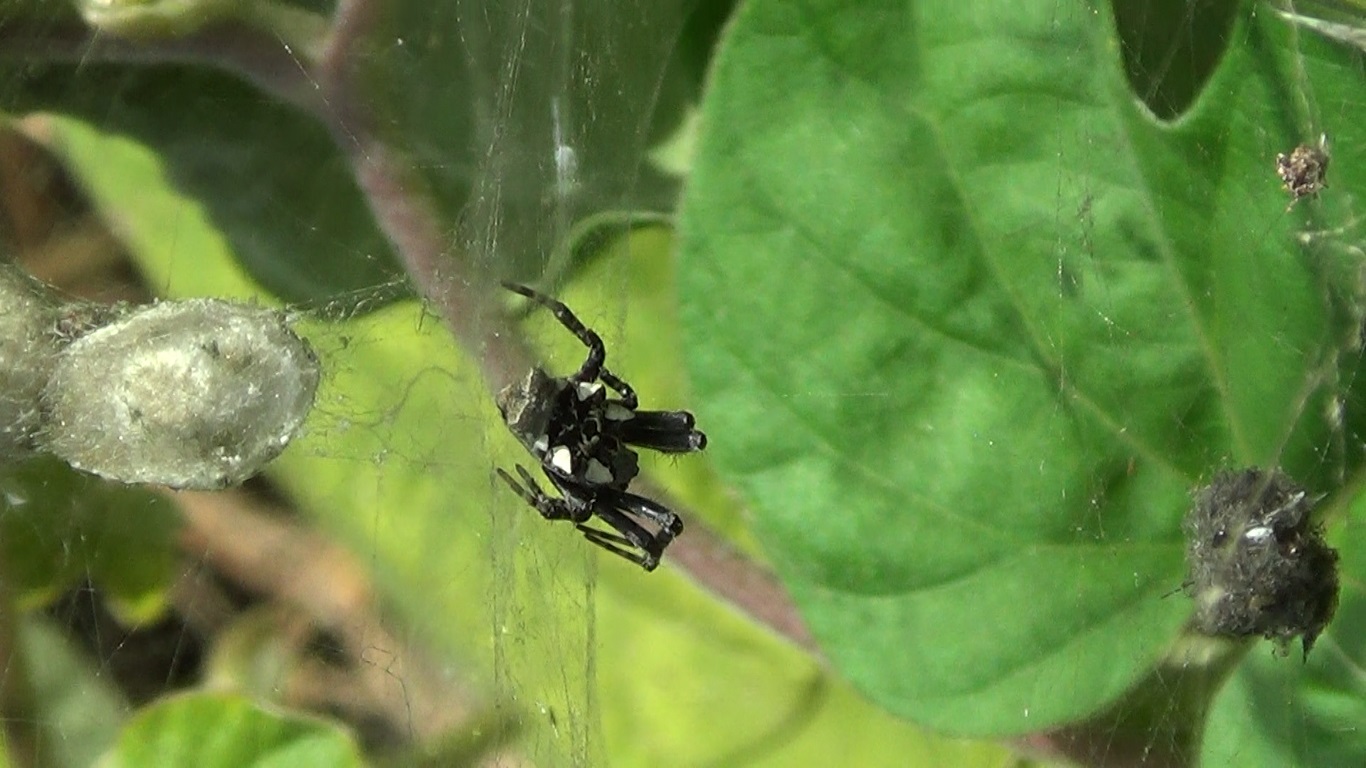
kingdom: Animalia
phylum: Arthropoda
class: Arachnida
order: Araneae
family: Araneidae
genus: Cyrtophora
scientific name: Cyrtophora citricola
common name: Orb weavers
